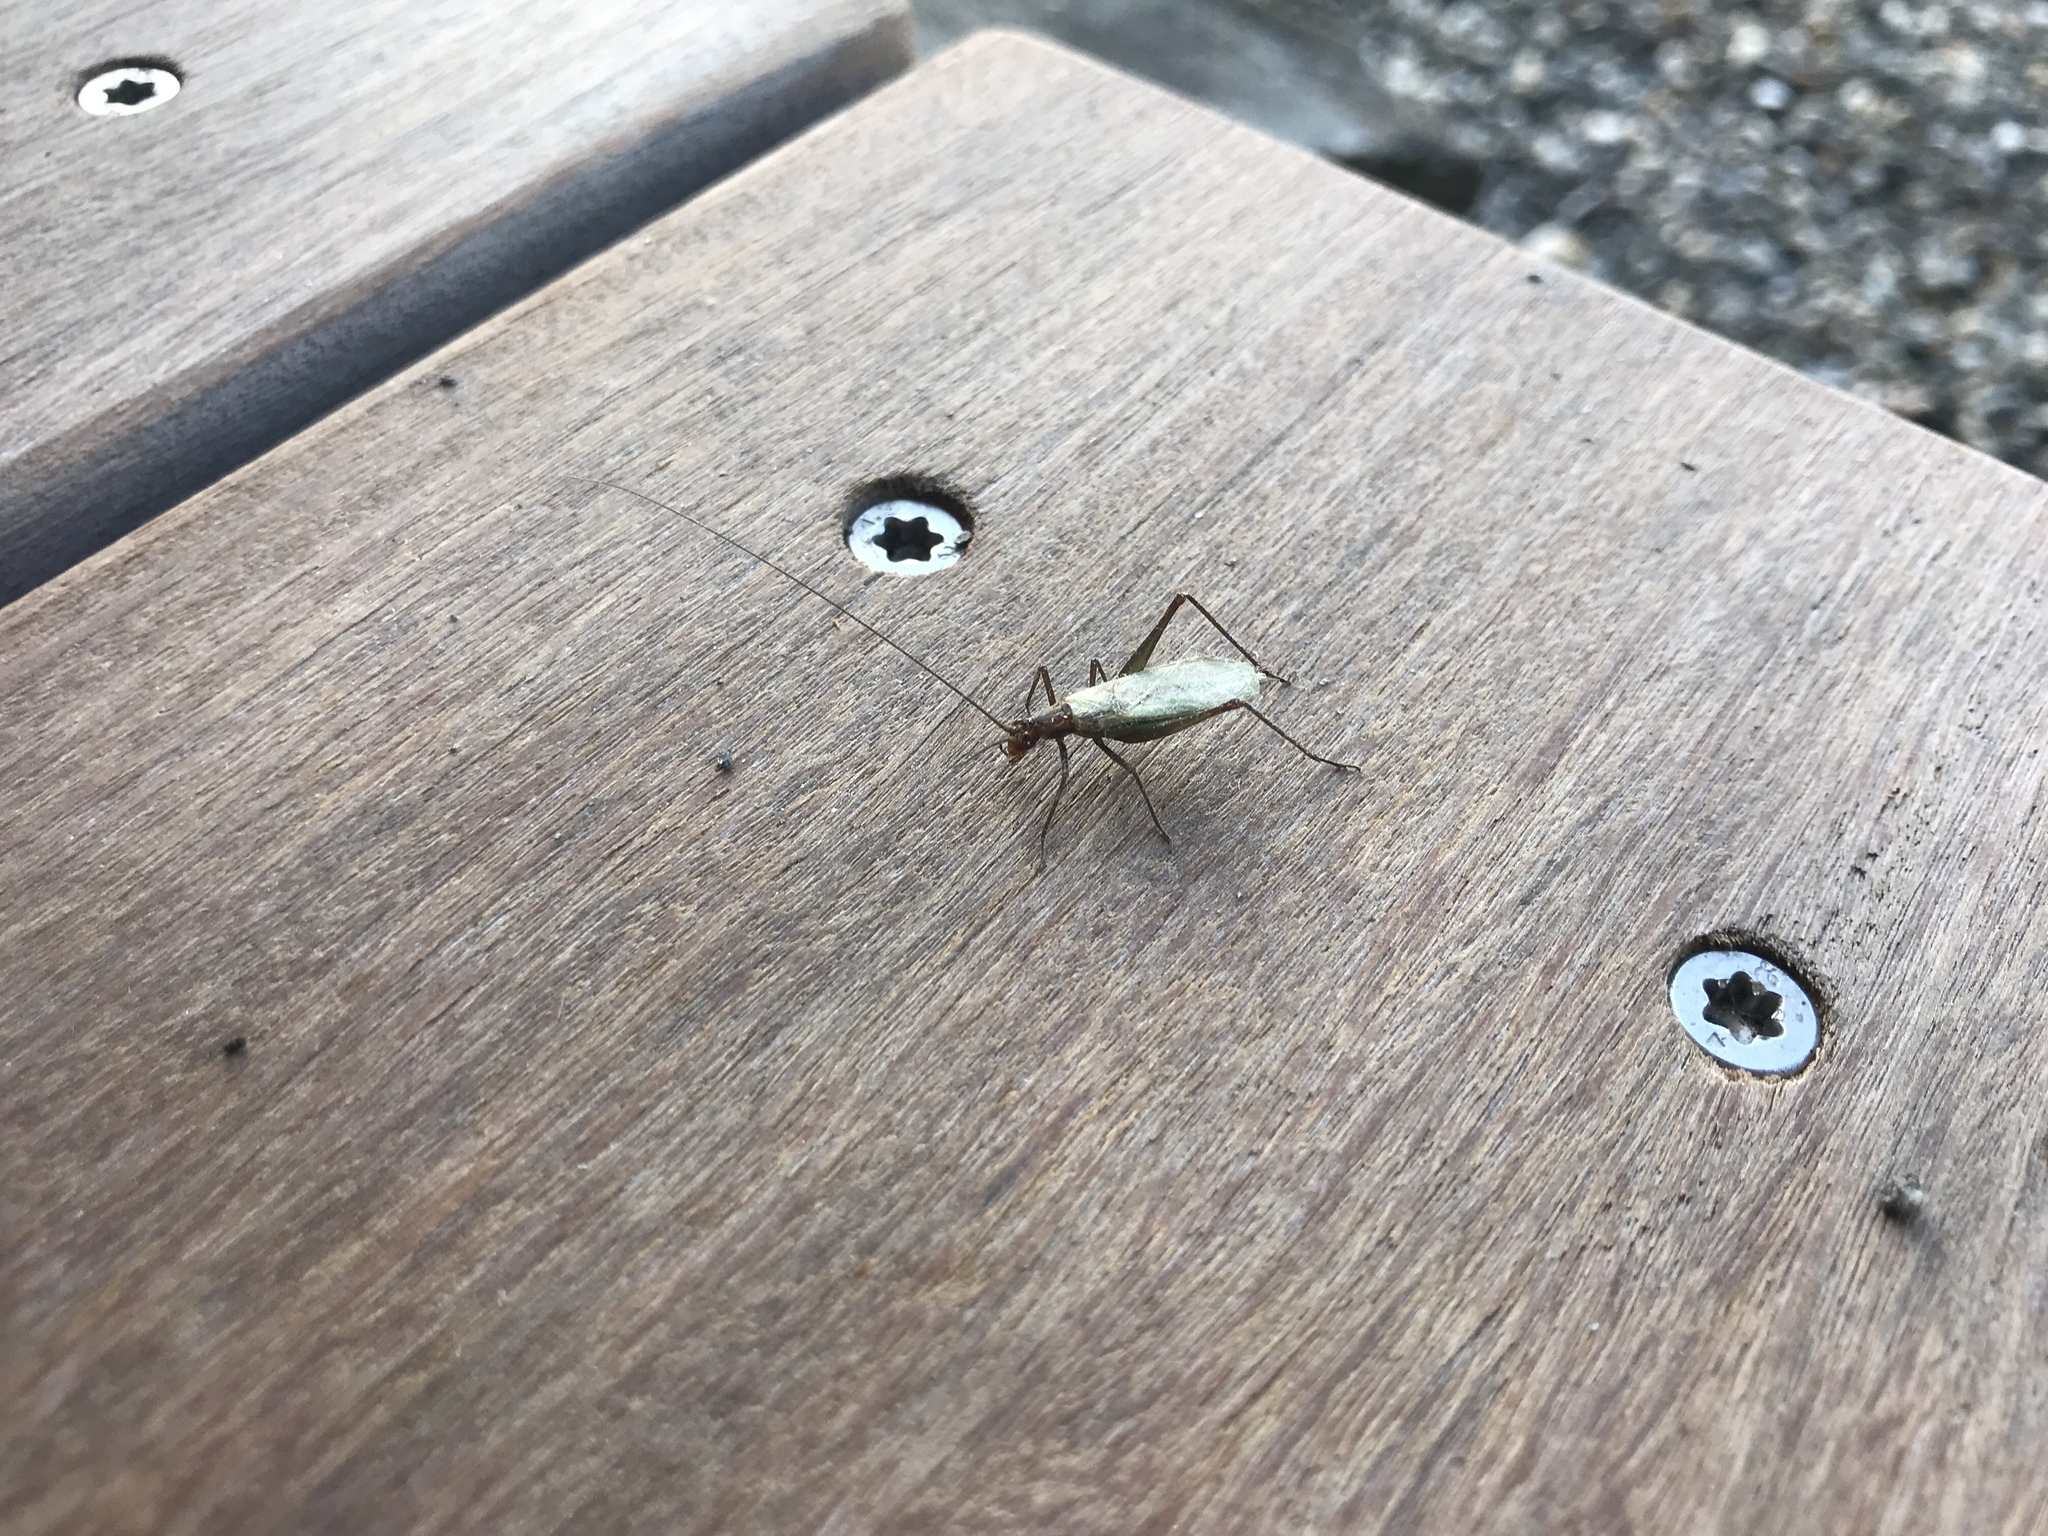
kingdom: Animalia
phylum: Arthropoda
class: Insecta
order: Orthoptera
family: Gryllidae
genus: Oecanthus
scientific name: Oecanthus pini
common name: Pine tree cricket
